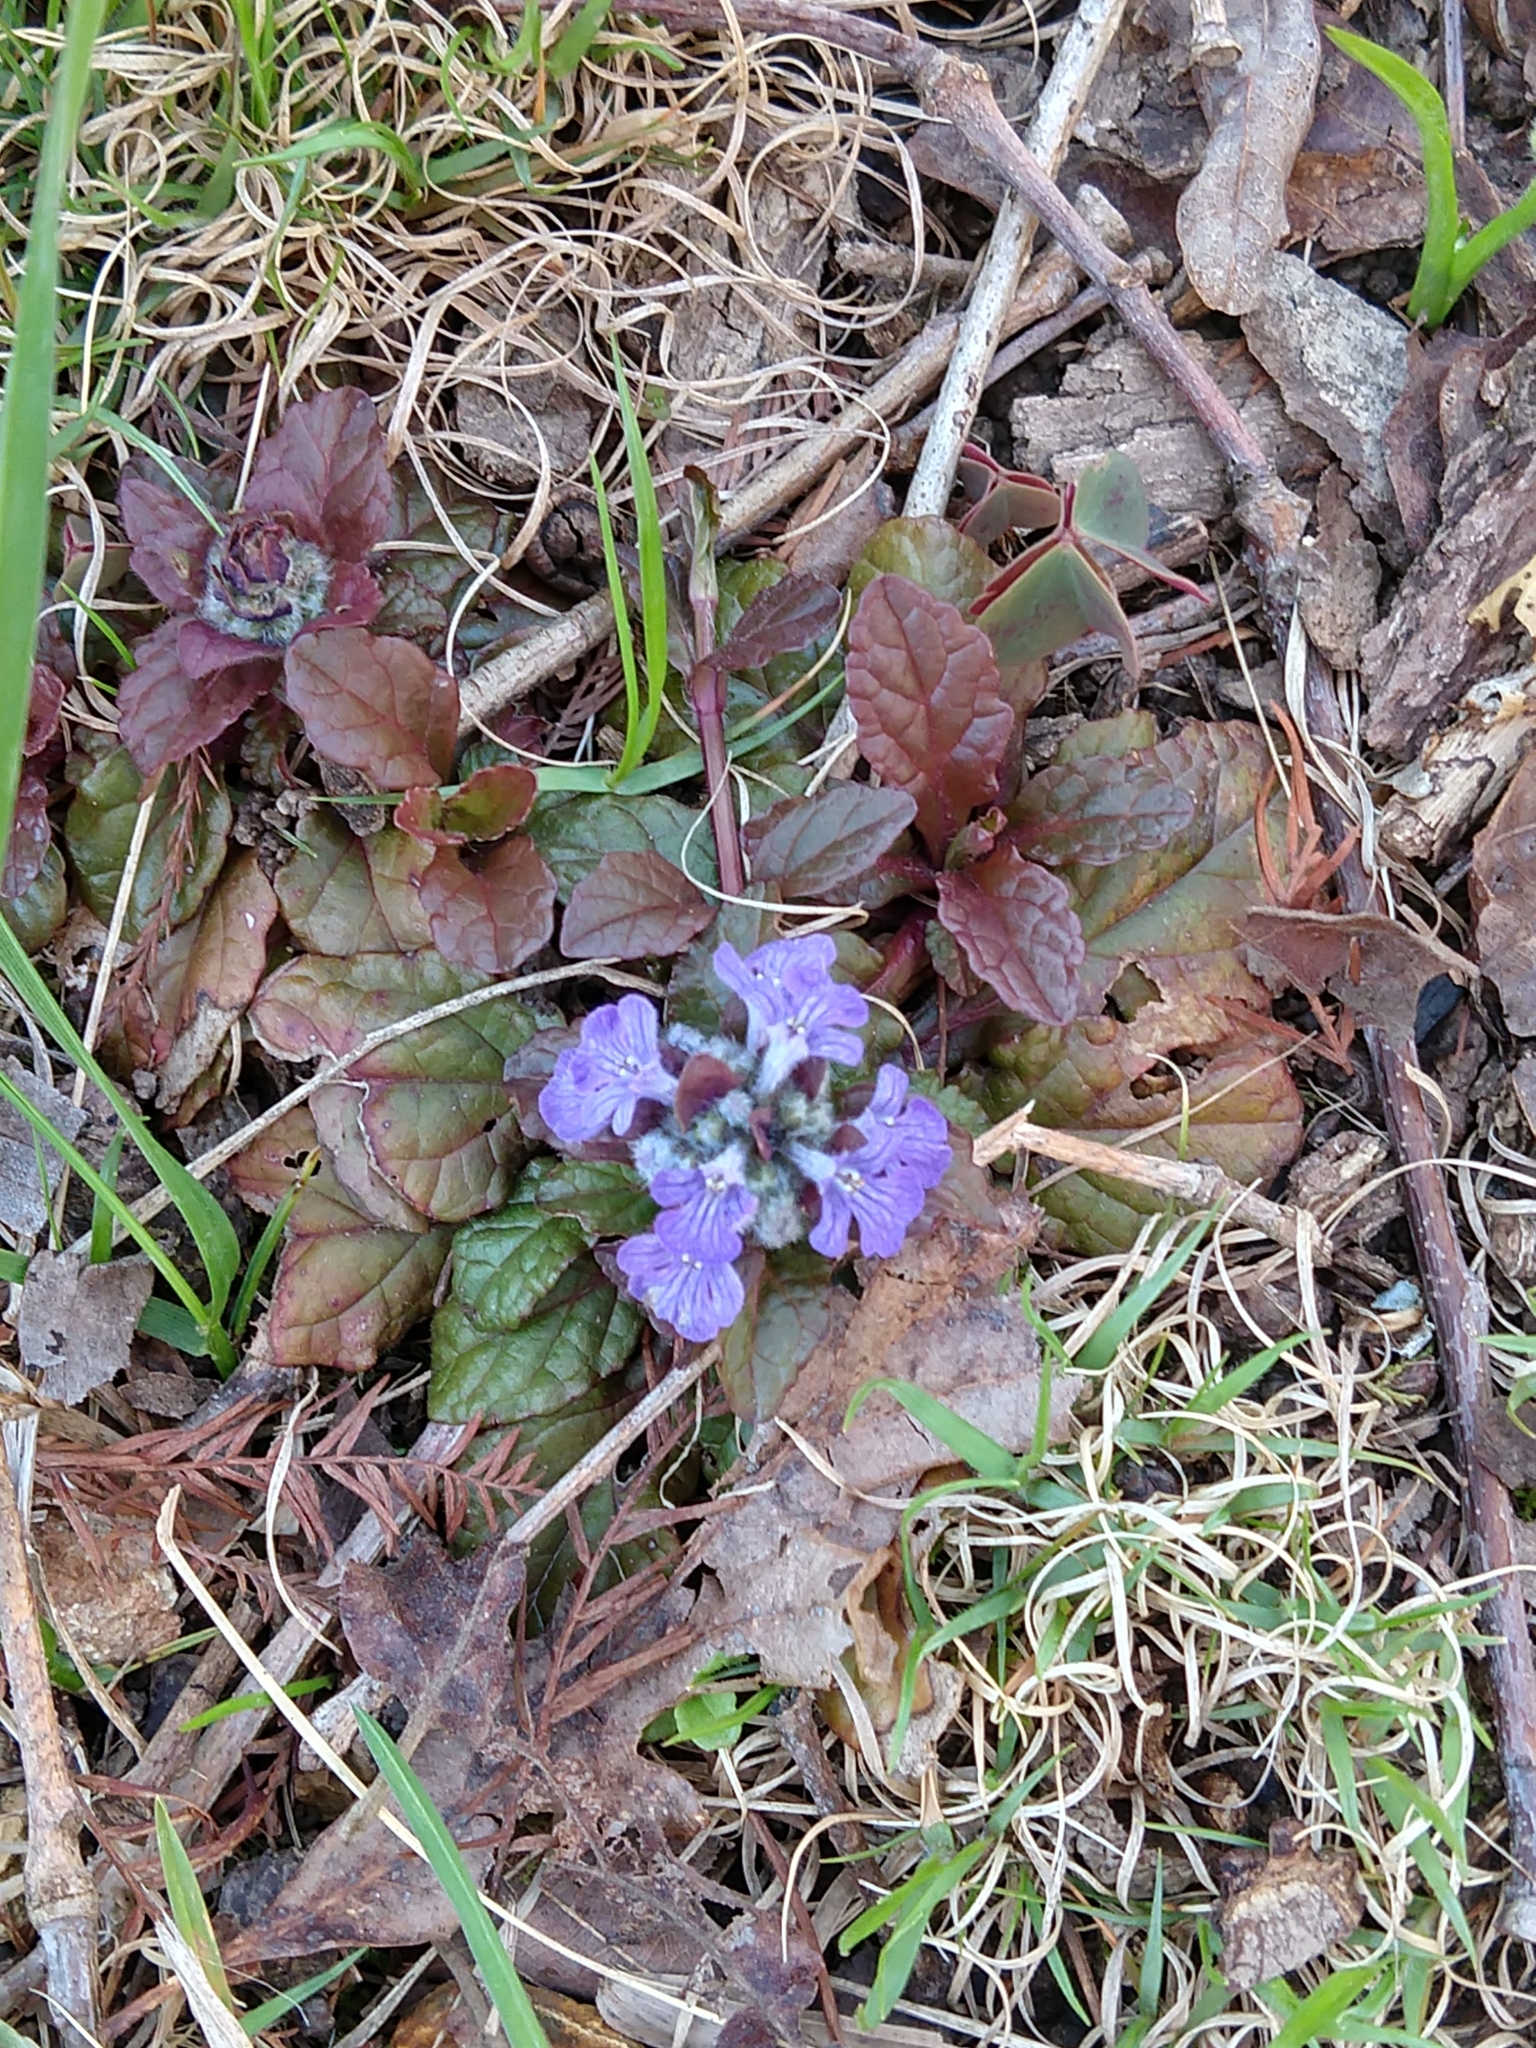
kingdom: Plantae
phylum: Tracheophyta
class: Magnoliopsida
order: Lamiales
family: Lamiaceae
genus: Ajuga
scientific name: Ajuga reptans
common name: Bugle
